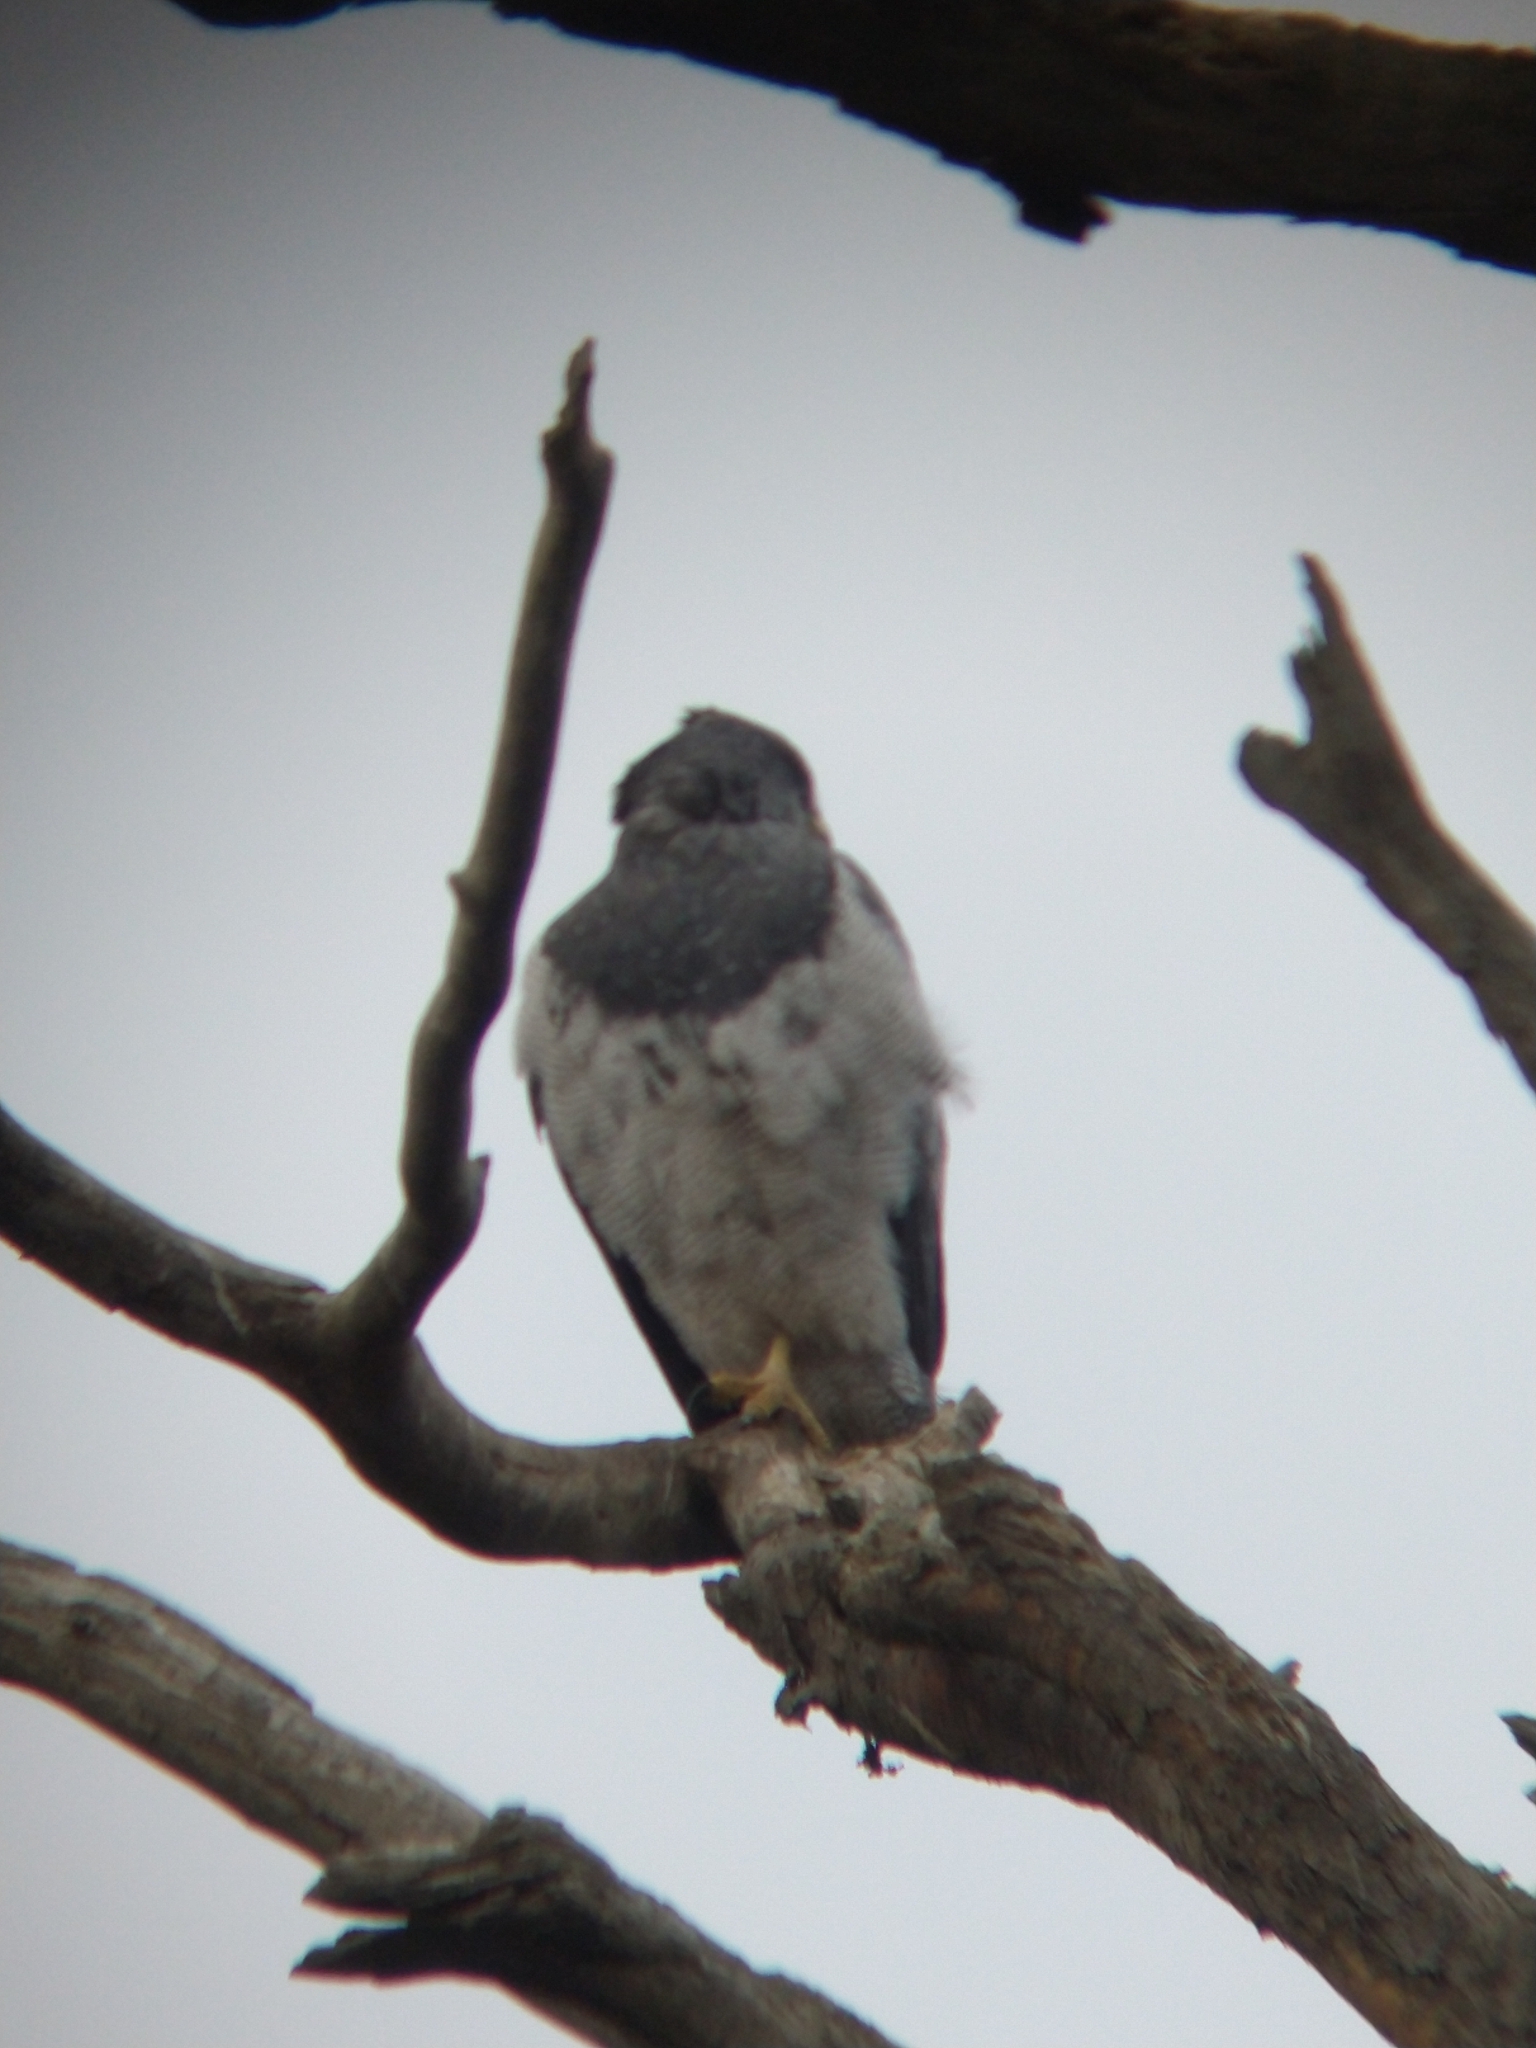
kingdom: Animalia
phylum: Chordata
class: Aves
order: Accipitriformes
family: Accipitridae
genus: Geranoaetus
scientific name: Geranoaetus melanoleucus
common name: Black-chested buzzard-eagle
